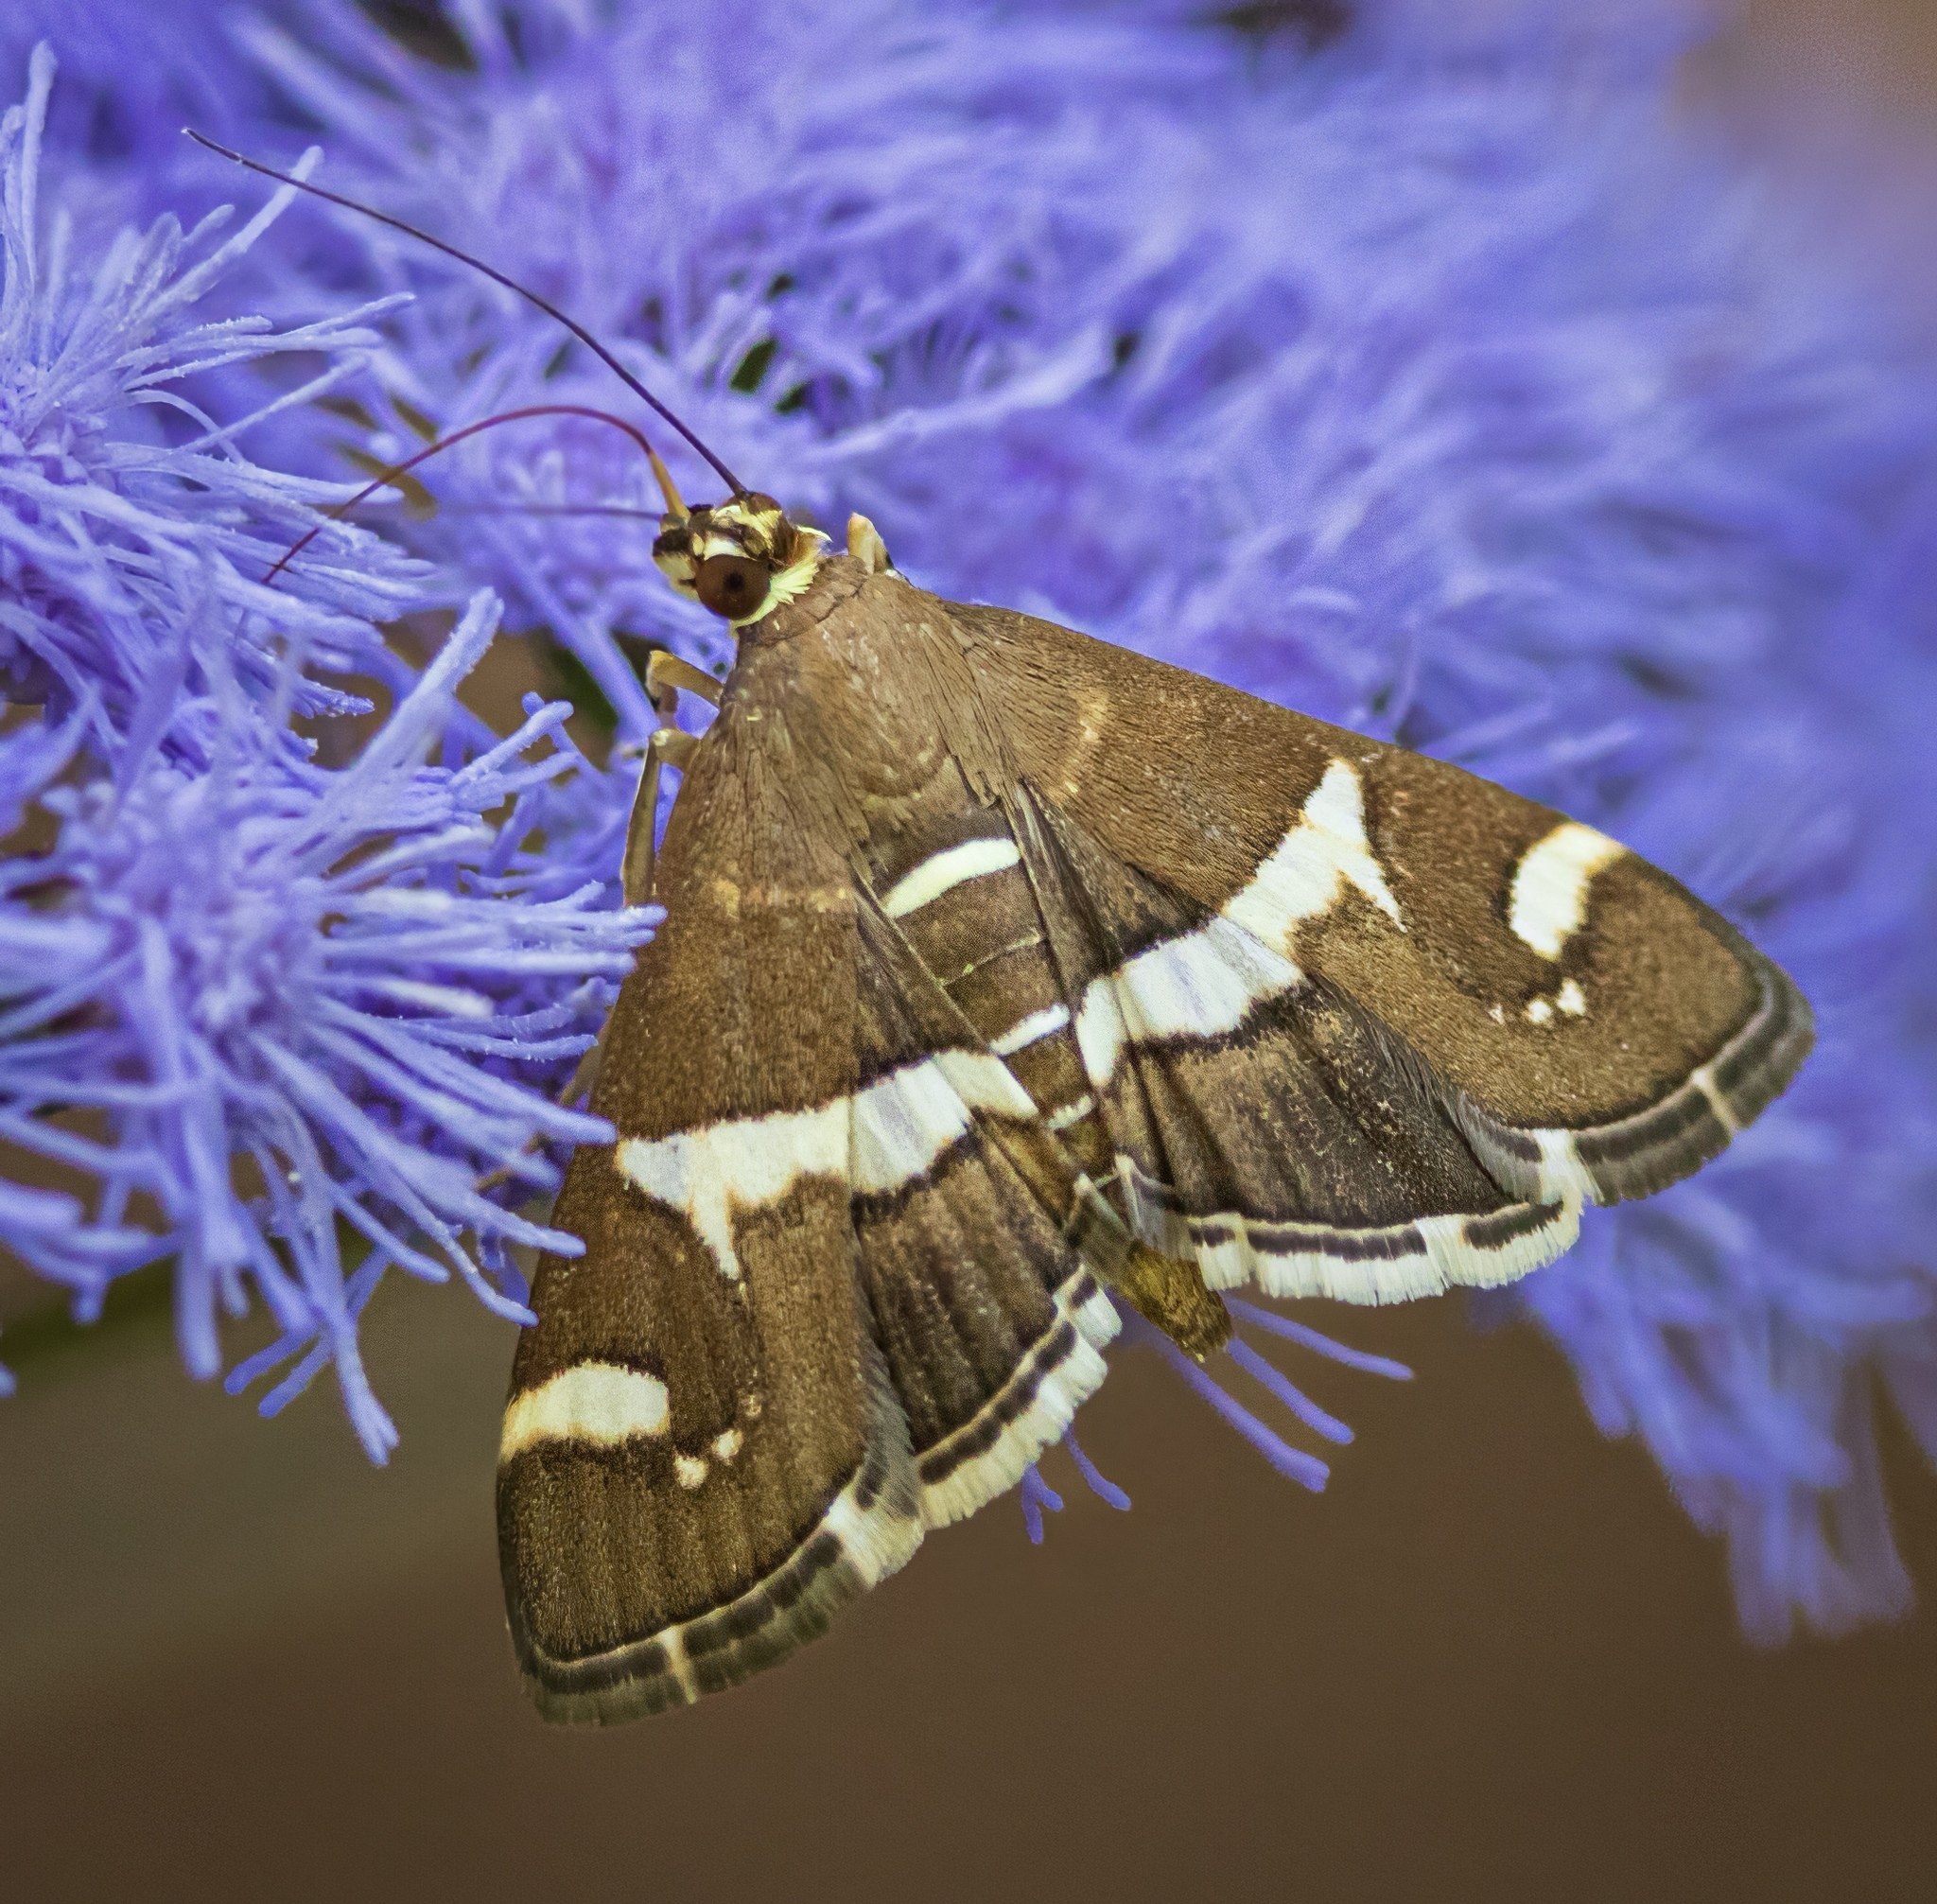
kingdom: Animalia
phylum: Arthropoda
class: Insecta
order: Lepidoptera
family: Crambidae
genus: Spoladea
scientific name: Spoladea recurvalis
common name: Beet webworm moth
